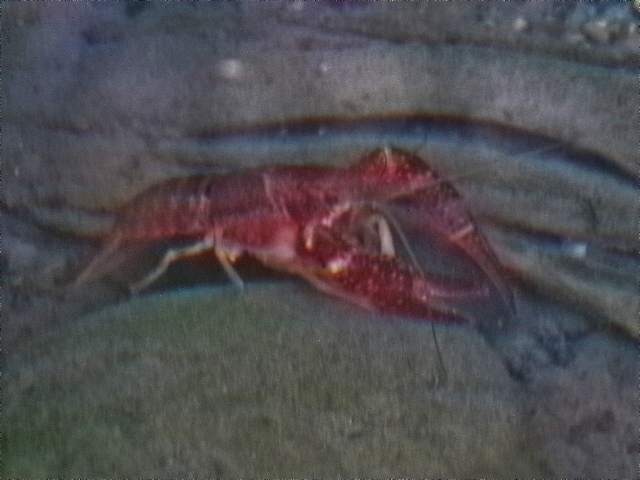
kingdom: Animalia
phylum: Arthropoda
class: Malacostraca
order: Decapoda
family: Cambaridae
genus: Procambarus
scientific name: Procambarus clarkii
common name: Red swamp crayfish
